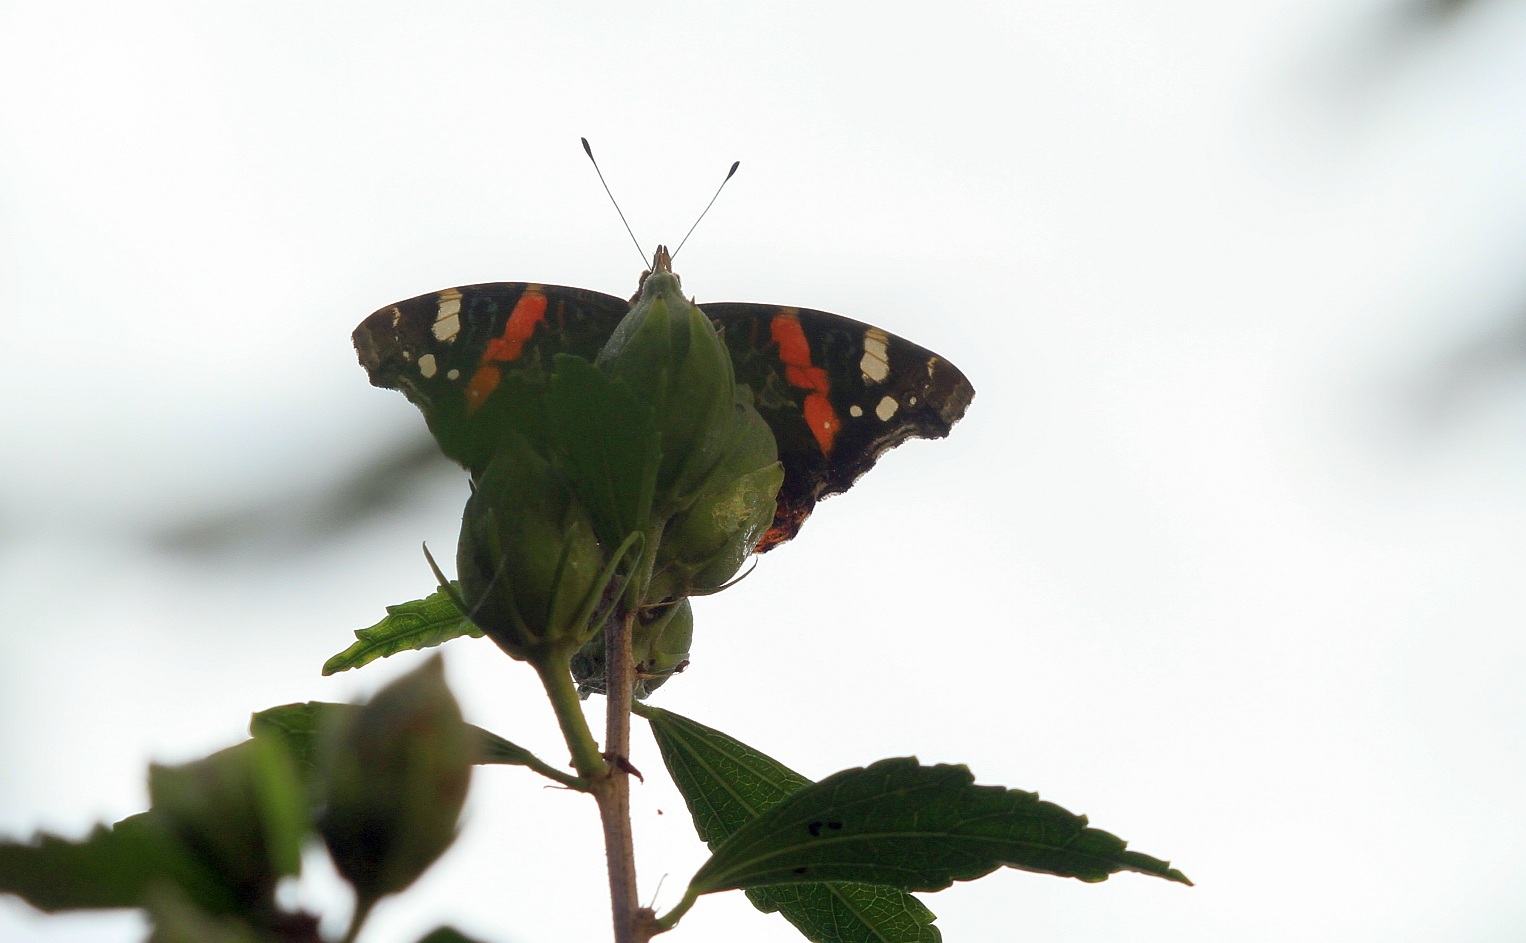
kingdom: Animalia
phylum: Arthropoda
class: Insecta
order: Lepidoptera
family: Nymphalidae
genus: Vanessa
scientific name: Vanessa atalanta
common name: Red admiral
